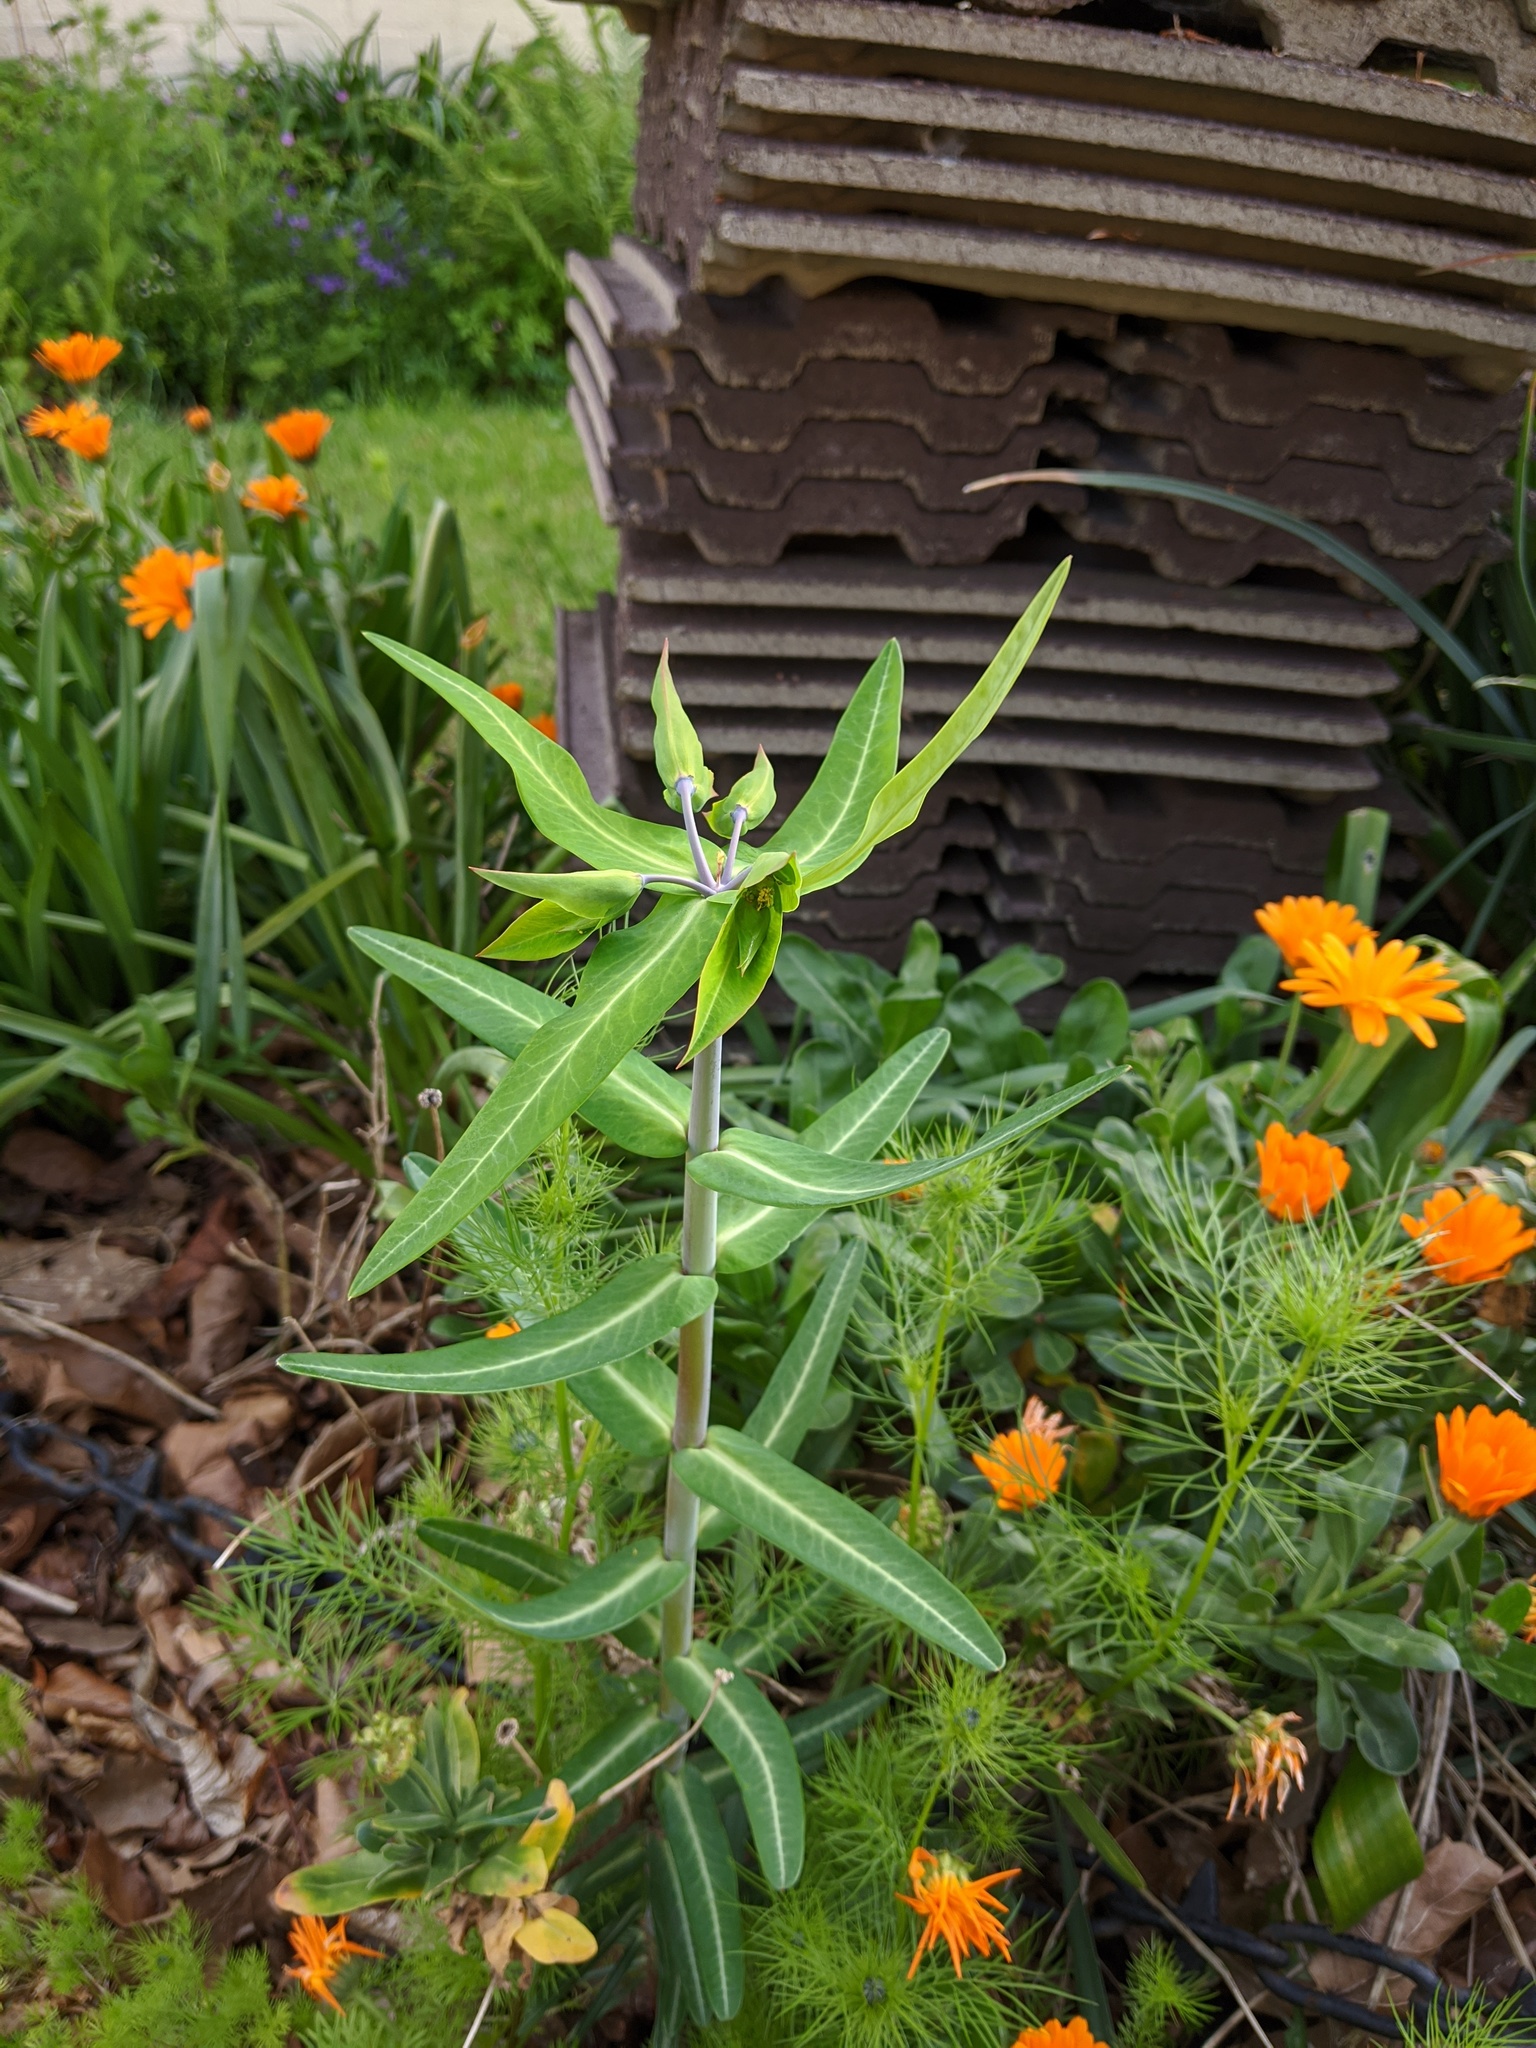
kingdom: Plantae
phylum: Tracheophyta
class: Magnoliopsida
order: Malpighiales
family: Euphorbiaceae
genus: Euphorbia
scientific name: Euphorbia lathyris
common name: Caper spurge
